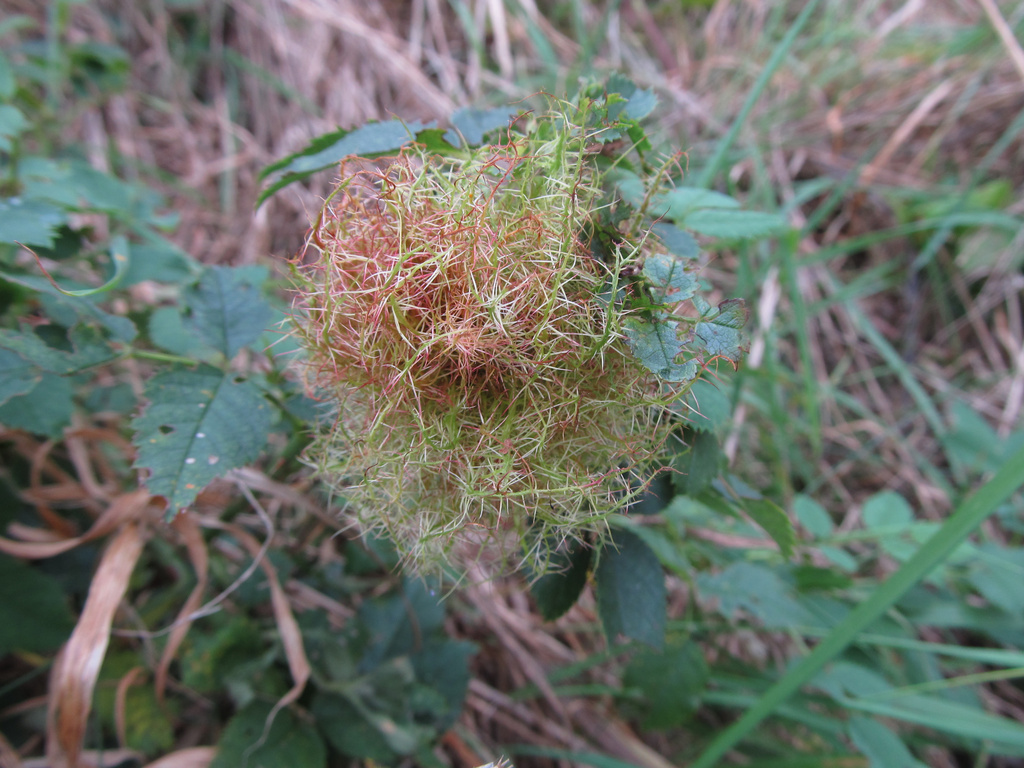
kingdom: Animalia
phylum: Arthropoda
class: Insecta
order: Hymenoptera
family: Cynipidae
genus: Diplolepis
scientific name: Diplolepis rosae
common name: Bedeguar gall
